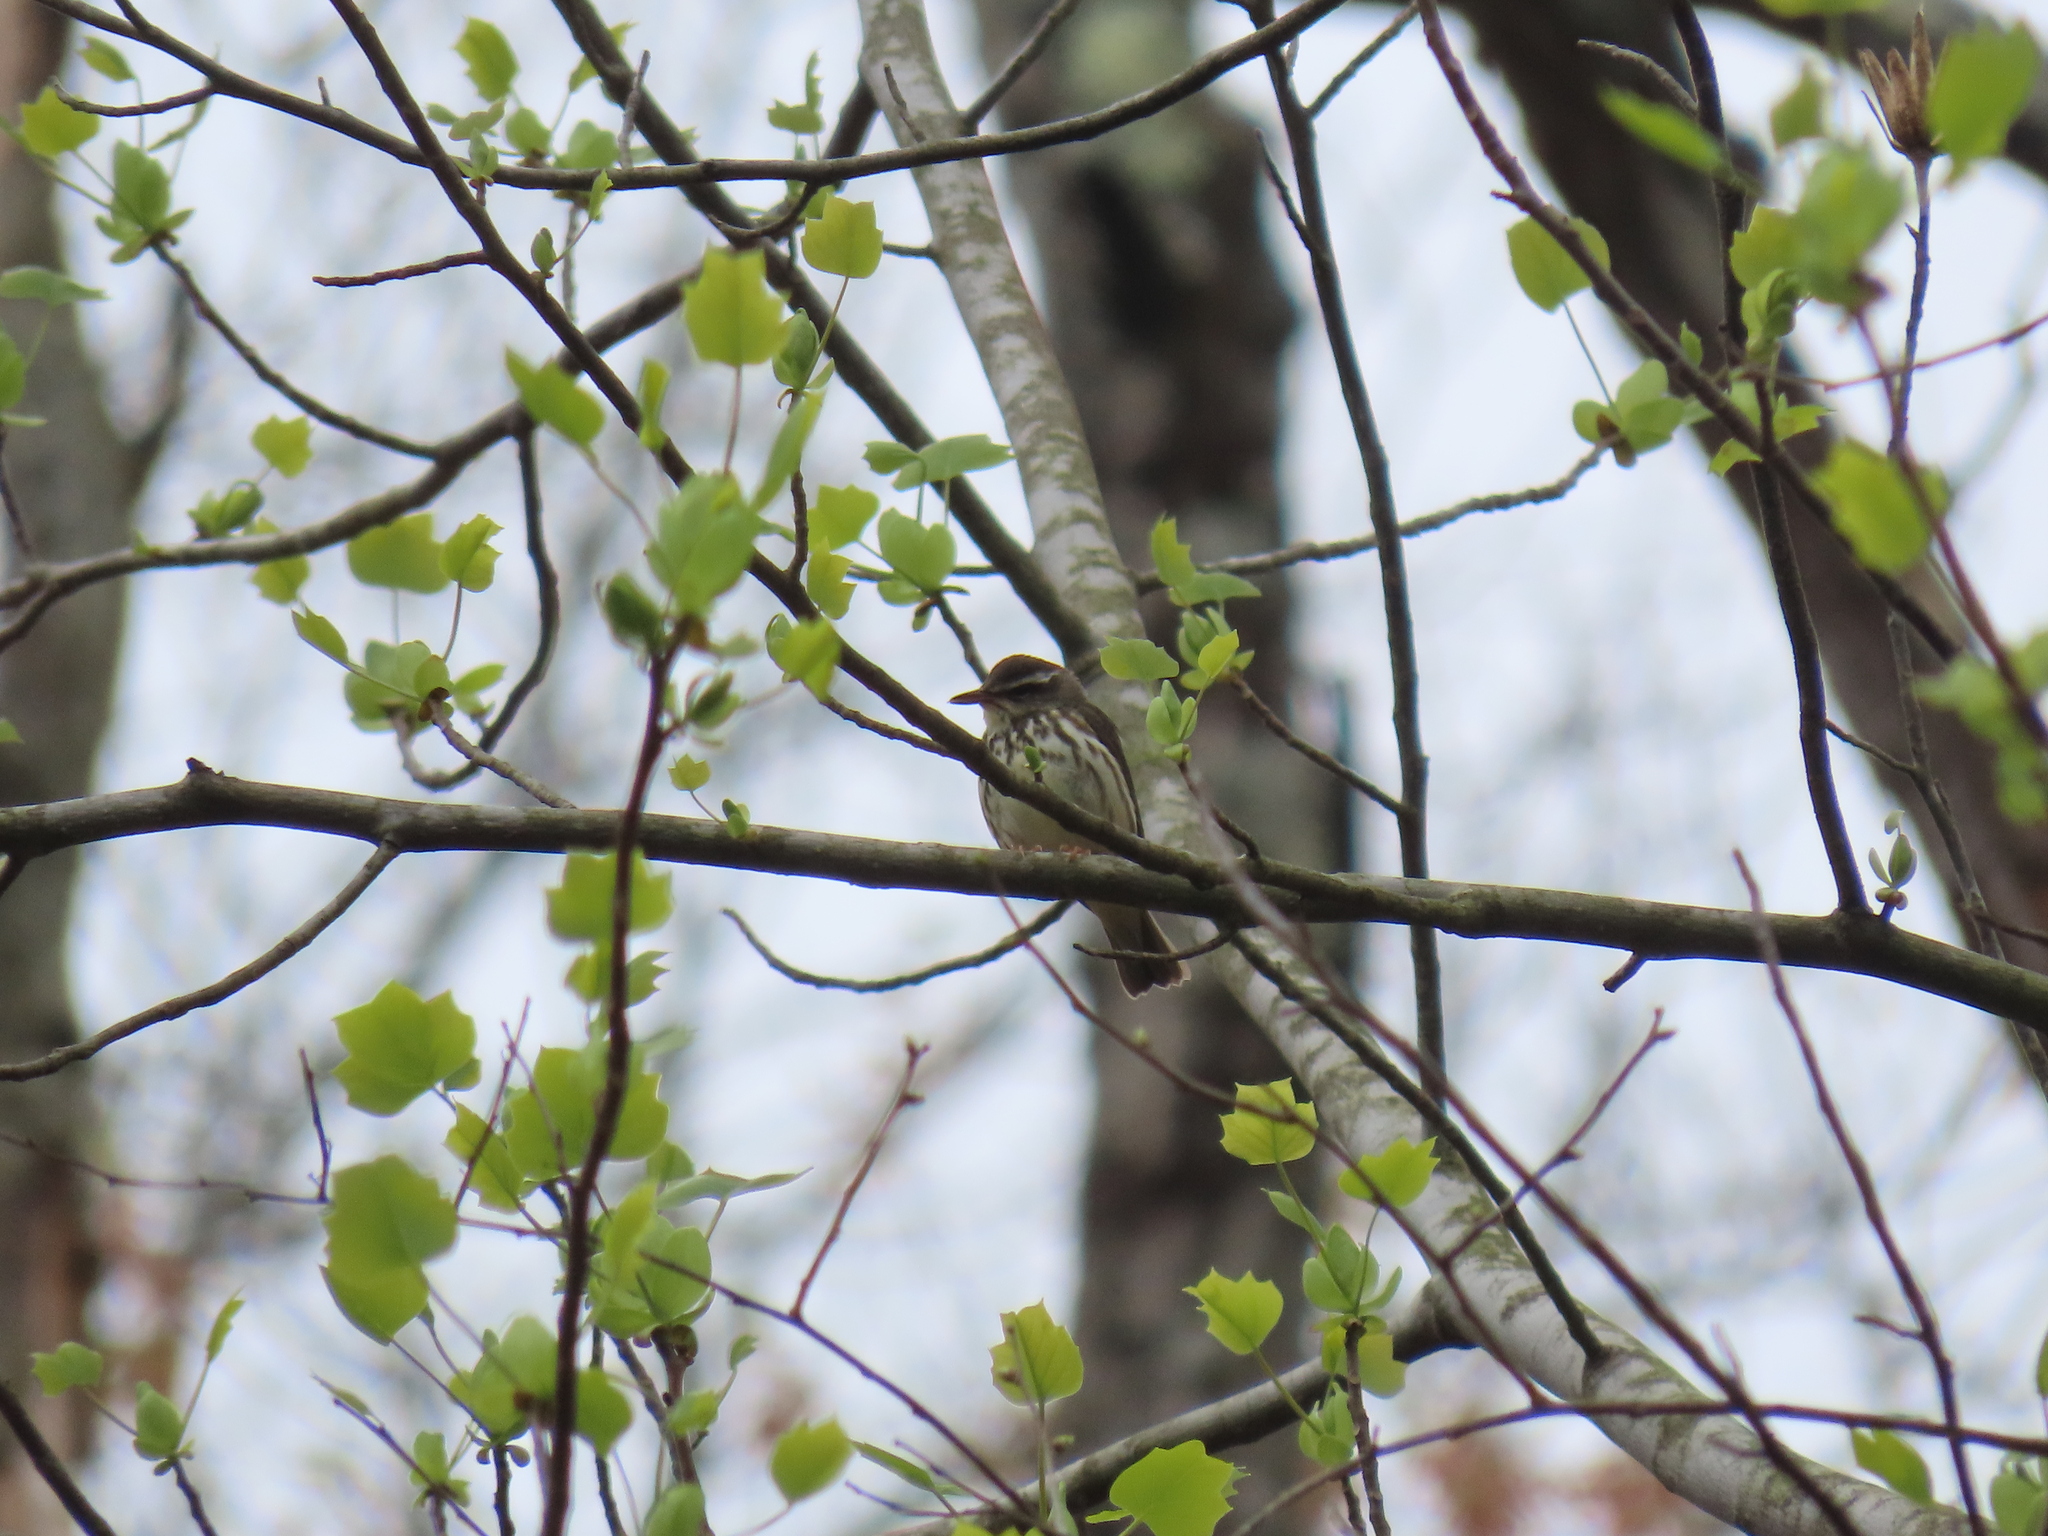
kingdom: Animalia
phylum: Chordata
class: Aves
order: Passeriformes
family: Parulidae
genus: Parkesia
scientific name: Parkesia motacilla
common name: Louisiana waterthrush
